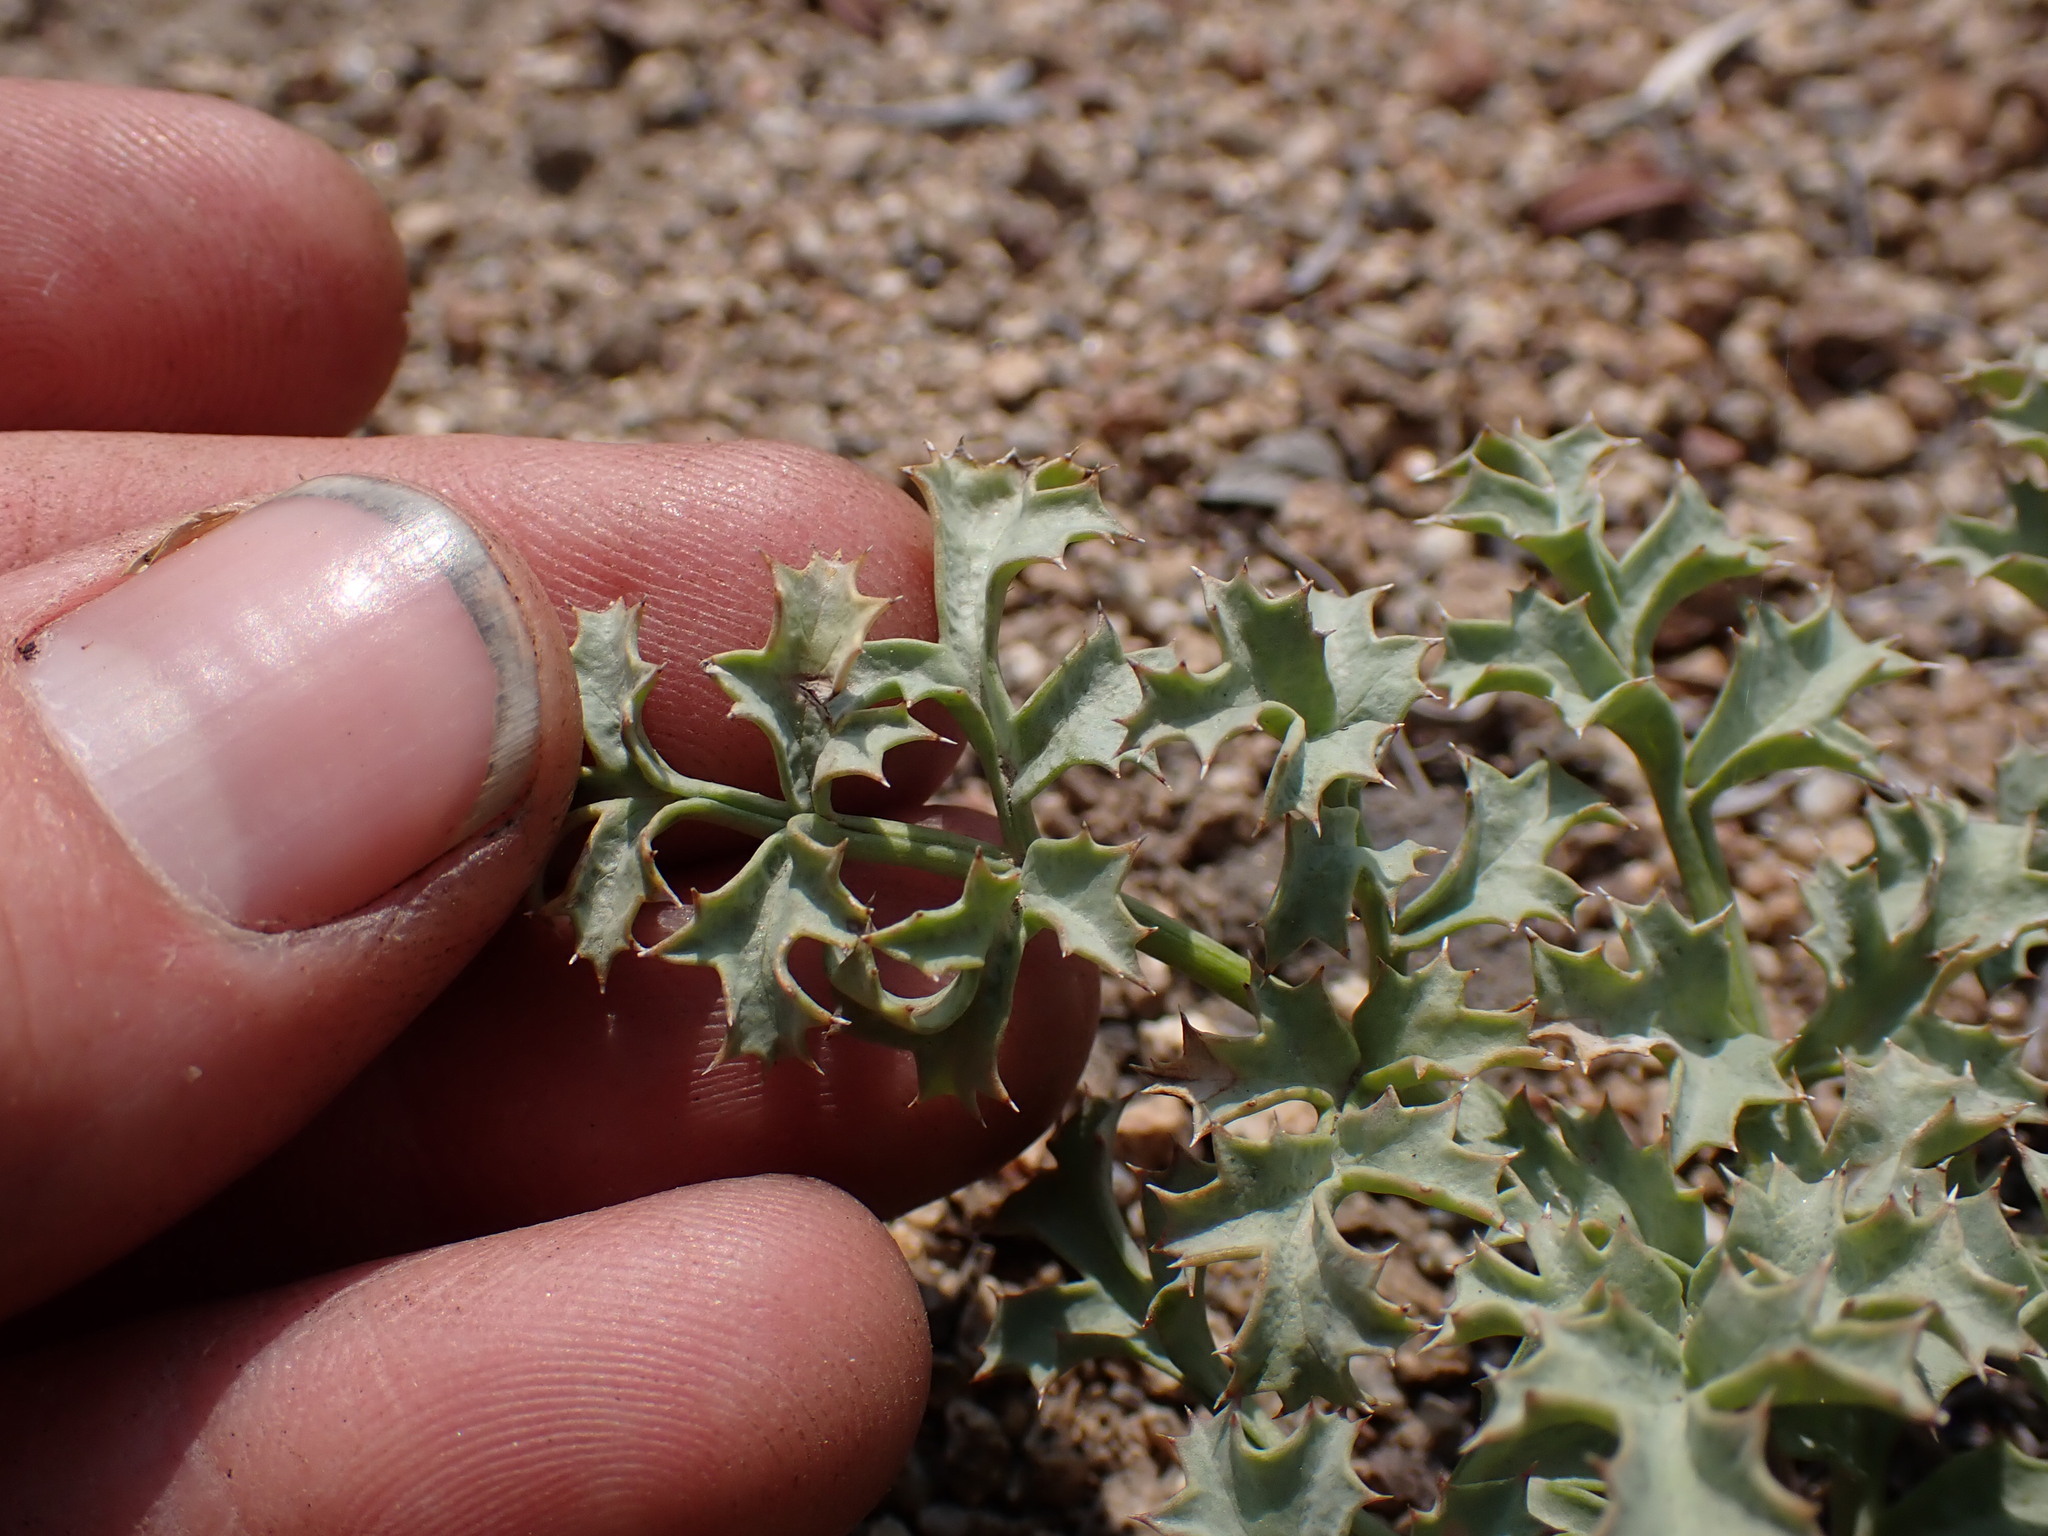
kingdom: Plantae
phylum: Tracheophyta
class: Magnoliopsida
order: Apiales
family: Apiaceae
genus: Lomatium
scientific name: Lomatium rigidum
